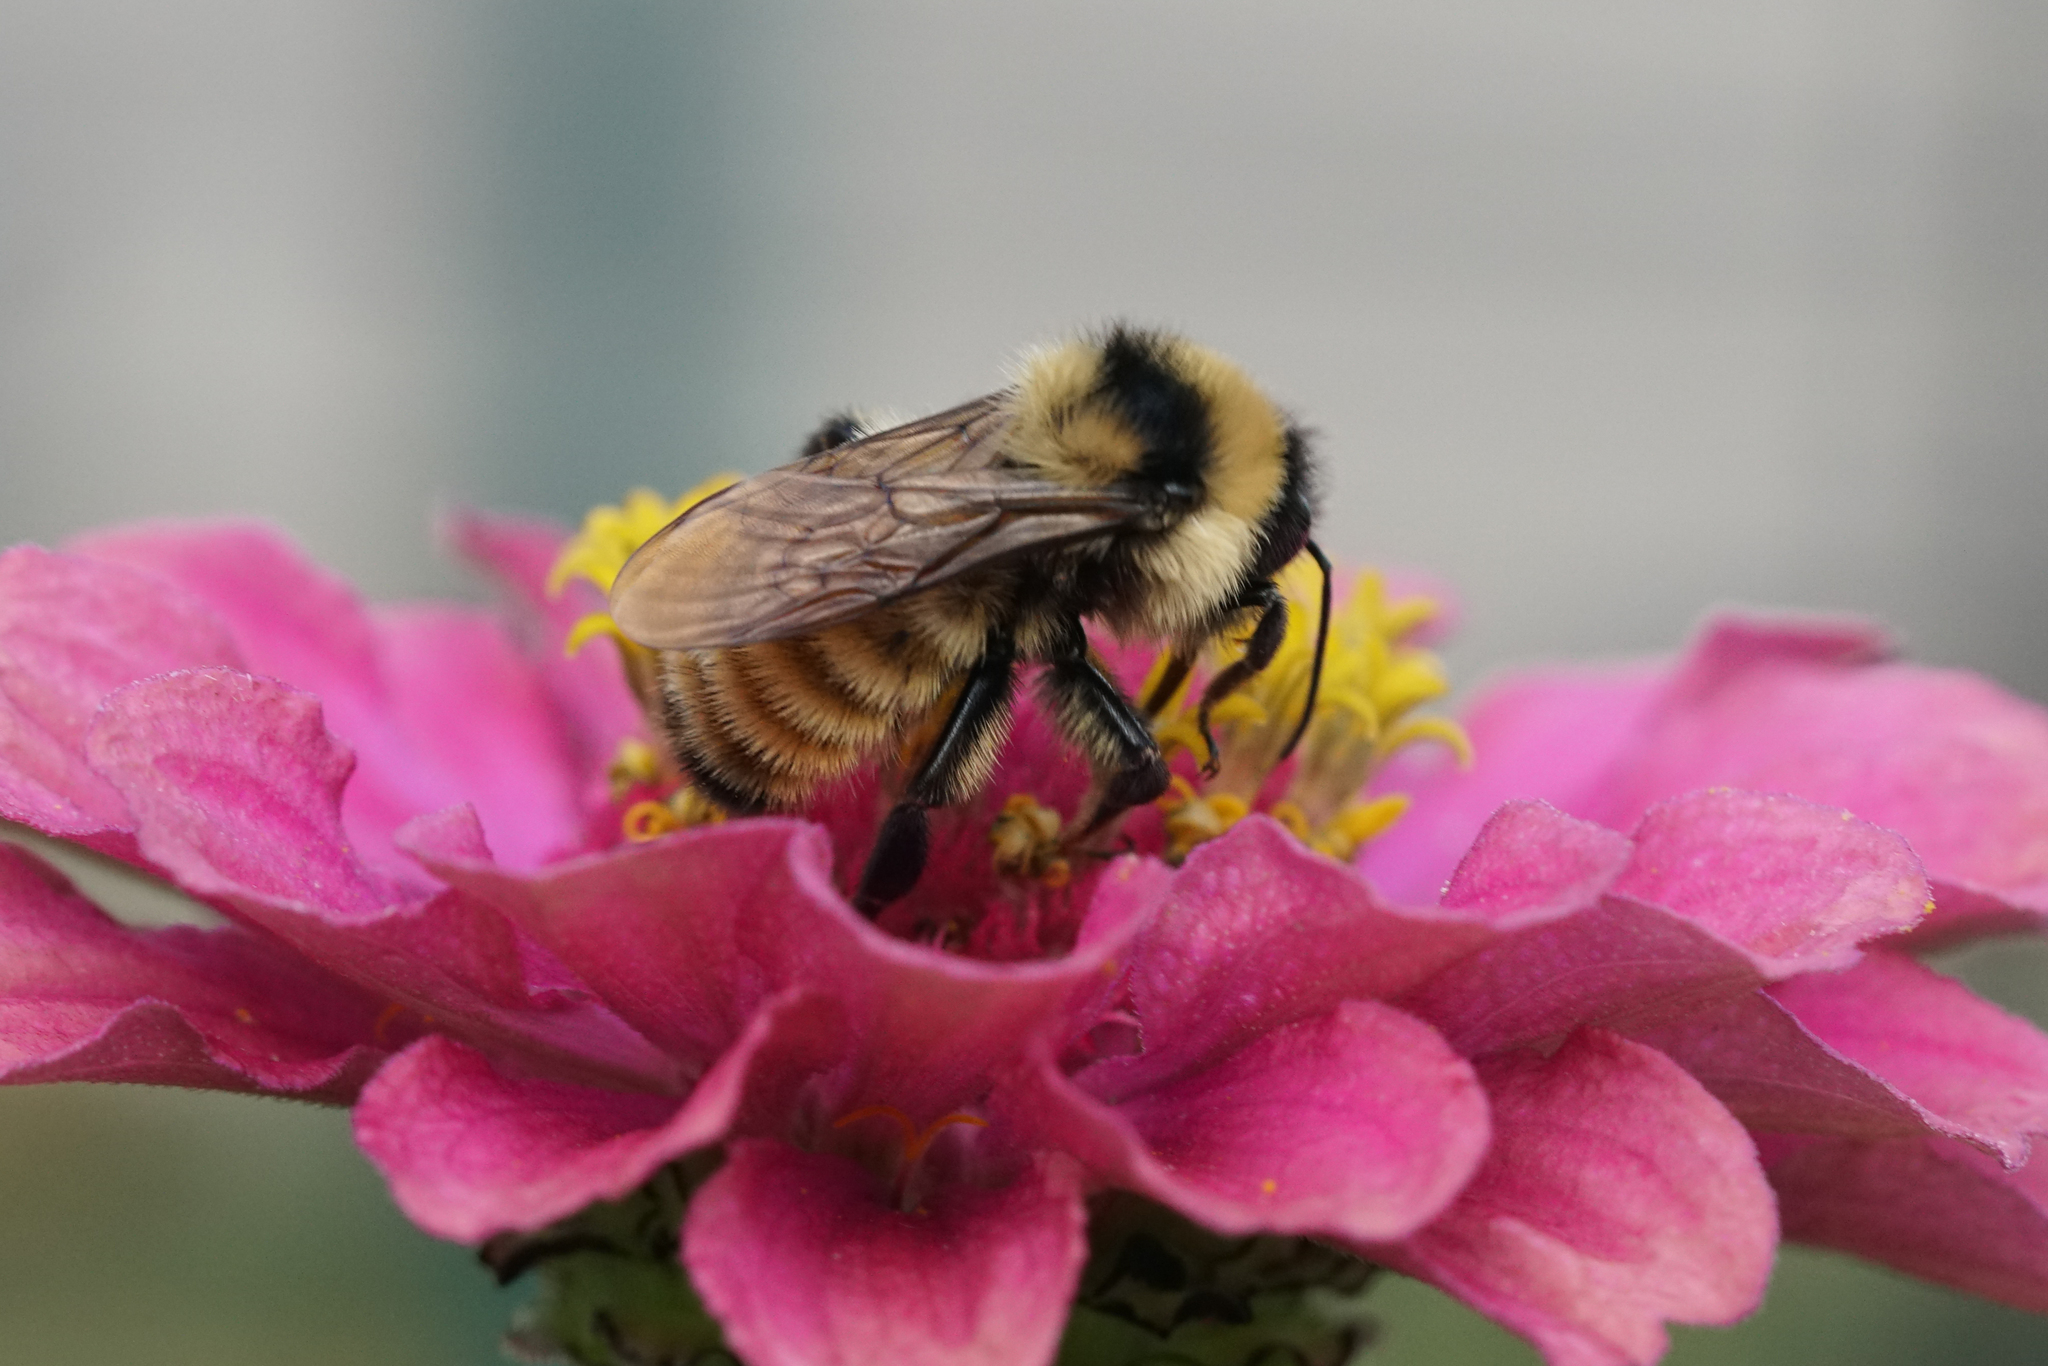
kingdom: Animalia
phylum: Arthropoda
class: Insecta
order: Hymenoptera
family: Apidae
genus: Bombus
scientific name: Bombus fervidus
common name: Yellow bumble bee
